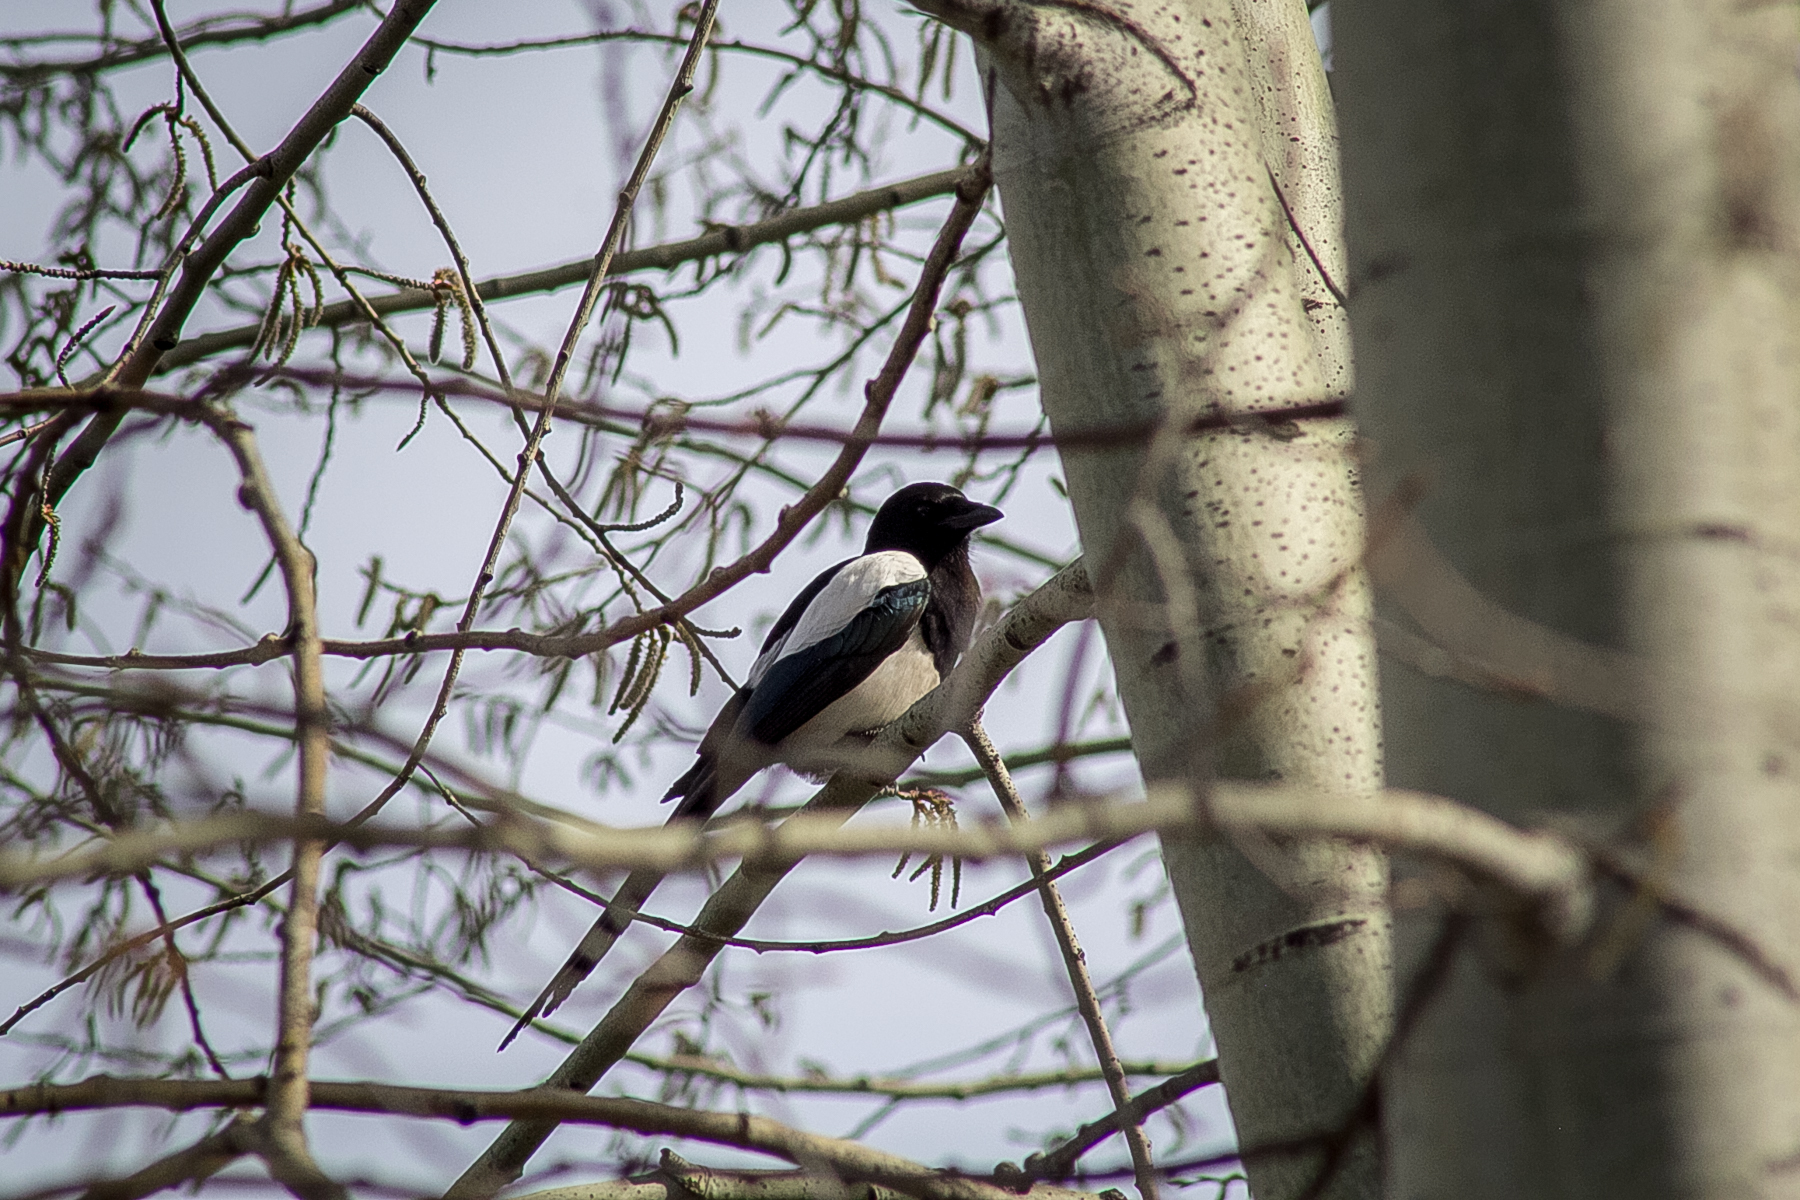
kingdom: Animalia
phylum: Chordata
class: Aves
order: Passeriformes
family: Corvidae
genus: Pica
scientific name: Pica pica
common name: Eurasian magpie
